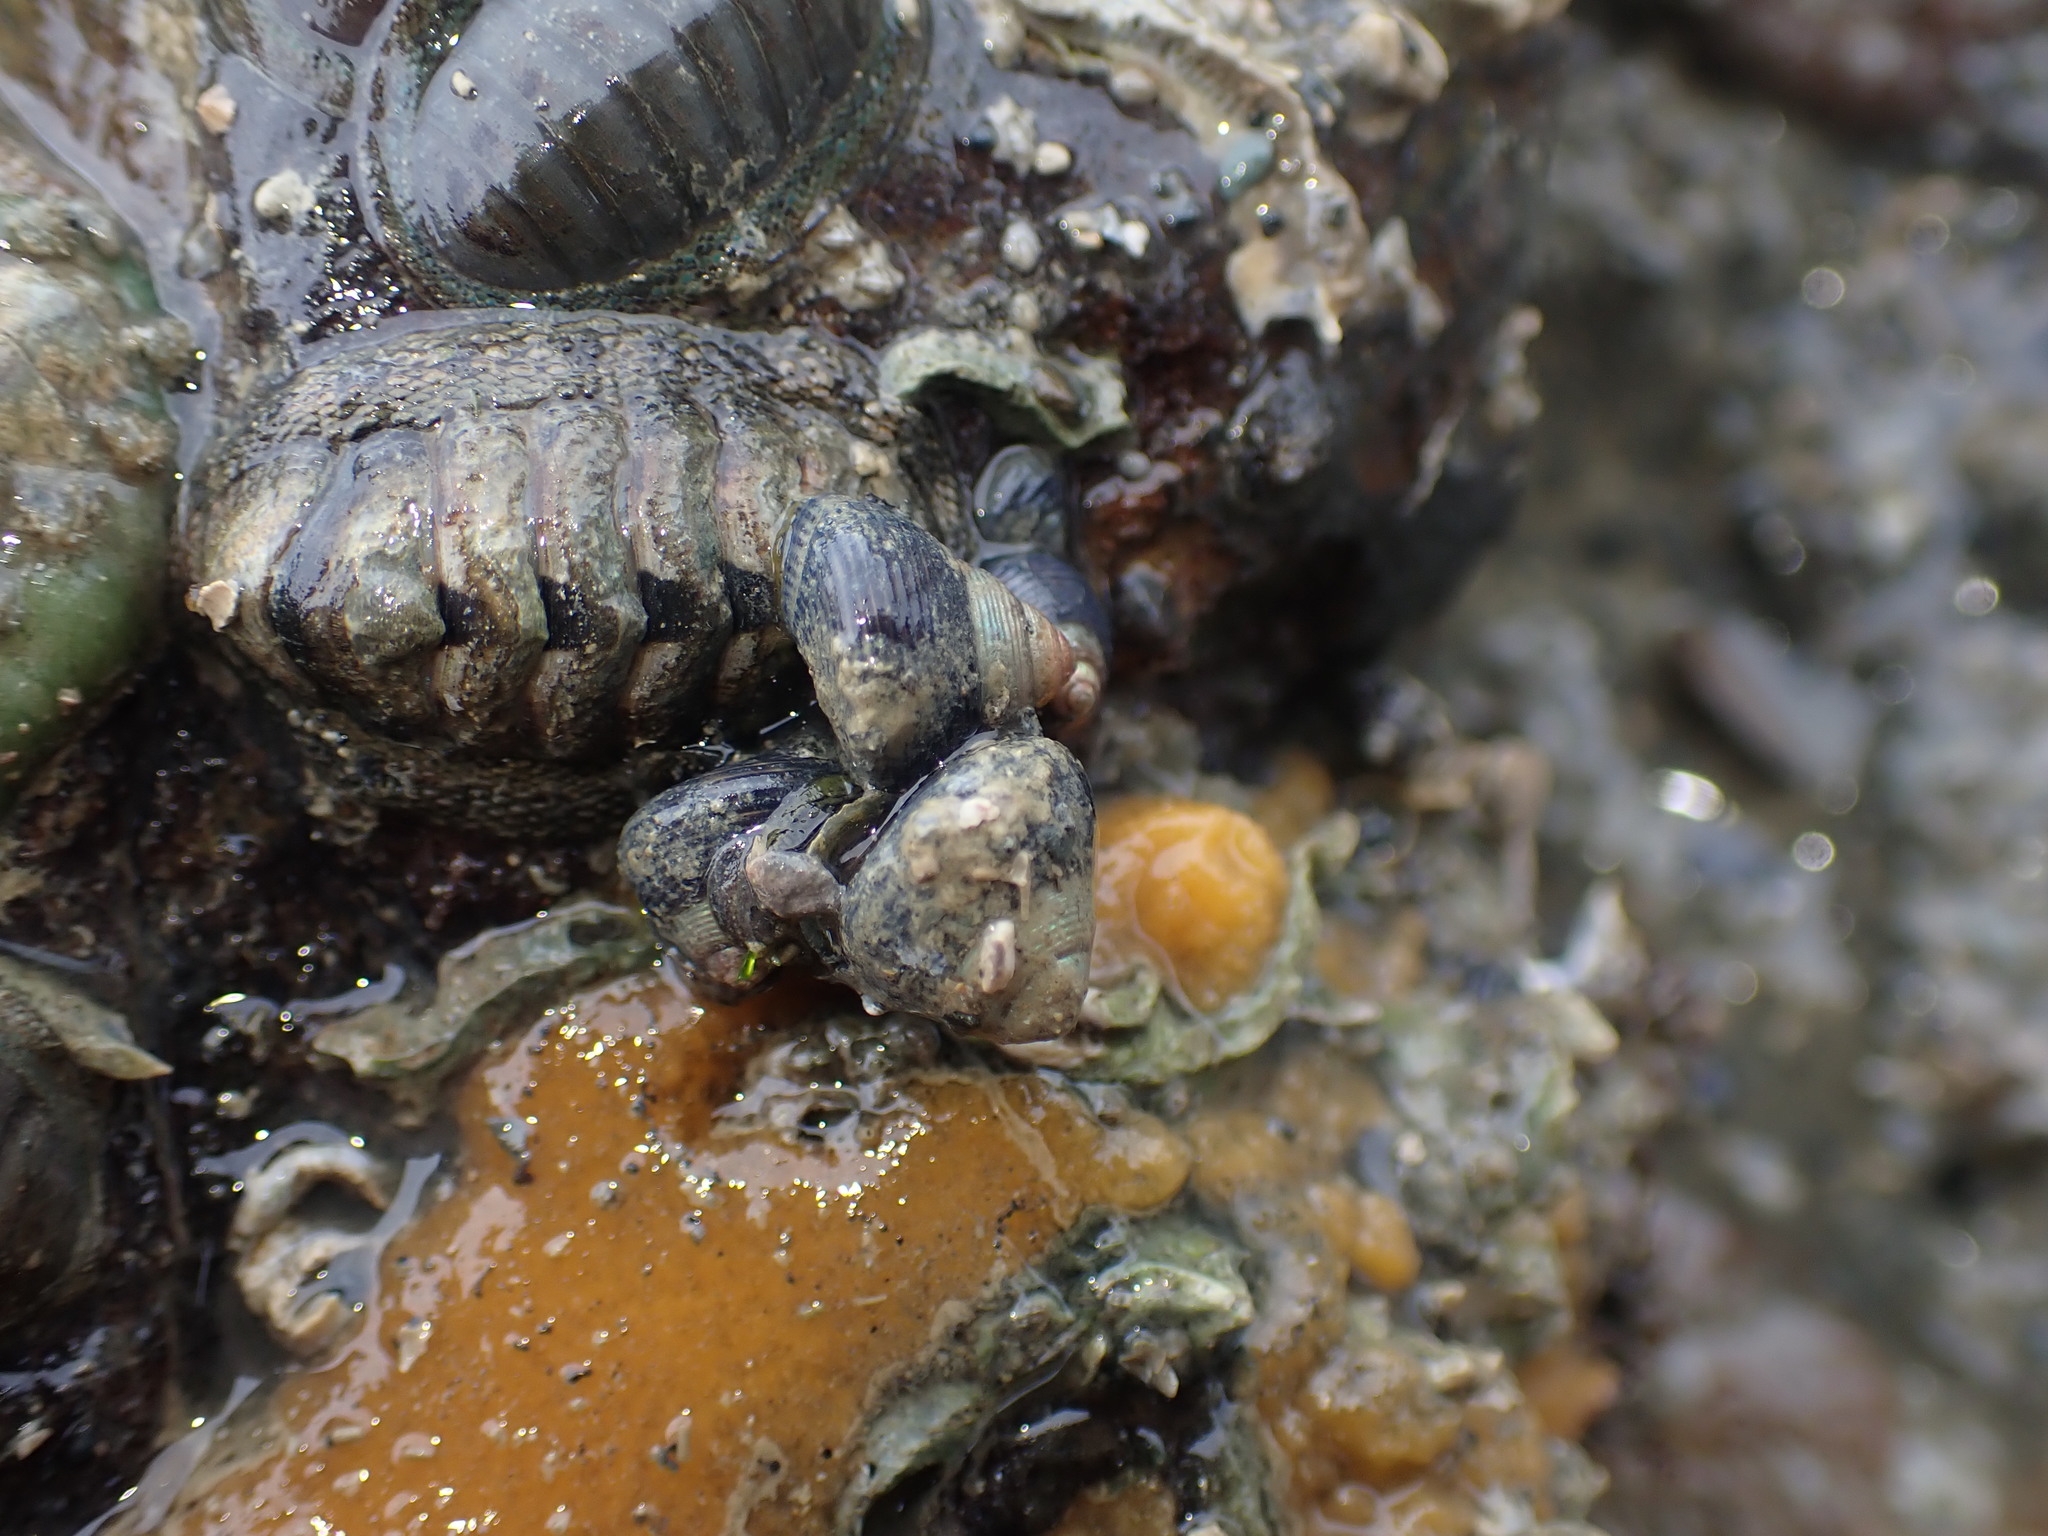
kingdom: Animalia
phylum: Mollusca
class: Gastropoda
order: Trochida
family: Trochidae
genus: Micrelenchus
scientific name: Micrelenchus huttonii
